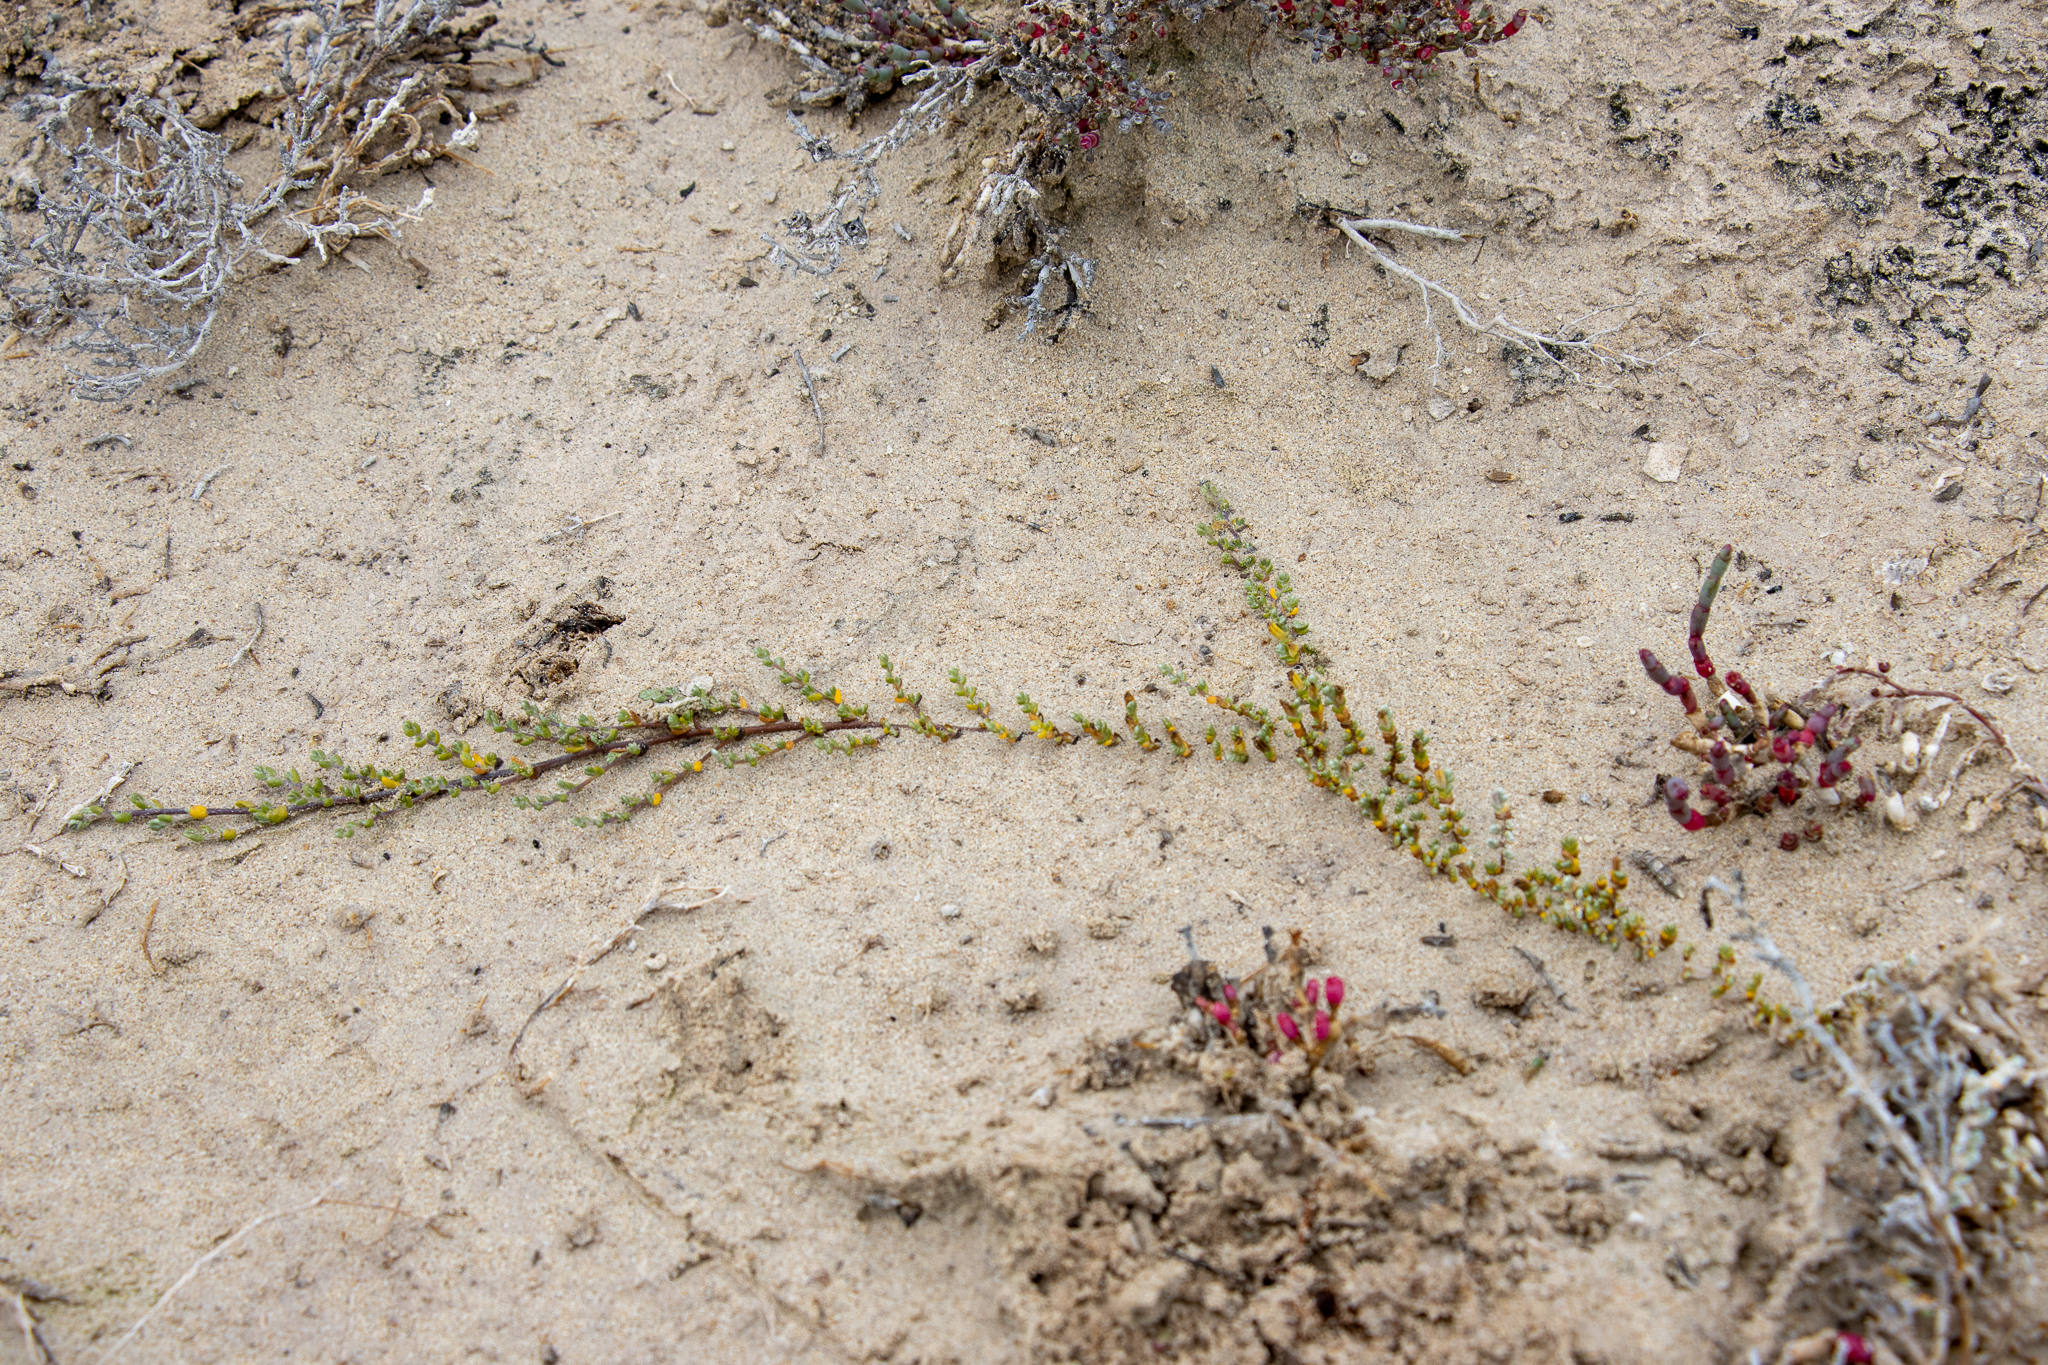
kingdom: Plantae
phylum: Tracheophyta
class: Magnoliopsida
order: Solanales
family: Convolvulaceae
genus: Wilsonia
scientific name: Wilsonia humilis
